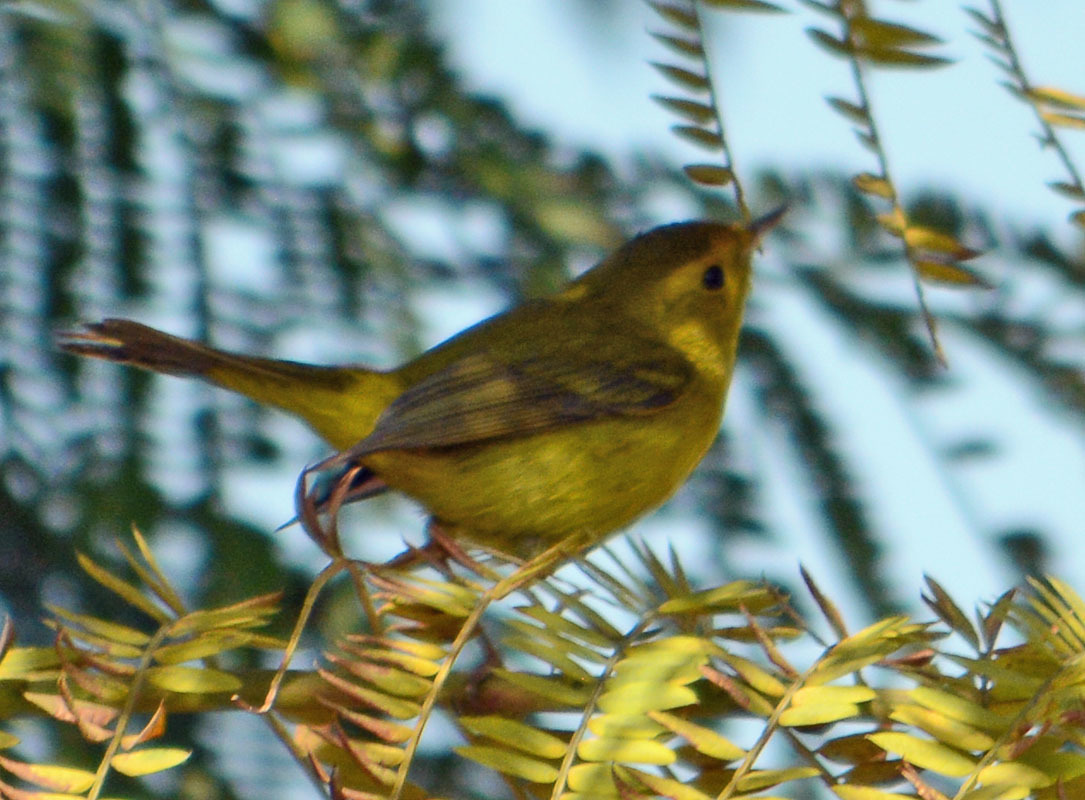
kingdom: Animalia
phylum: Chordata
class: Aves
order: Passeriformes
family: Parulidae
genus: Cardellina
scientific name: Cardellina pusilla
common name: Wilson's warbler
